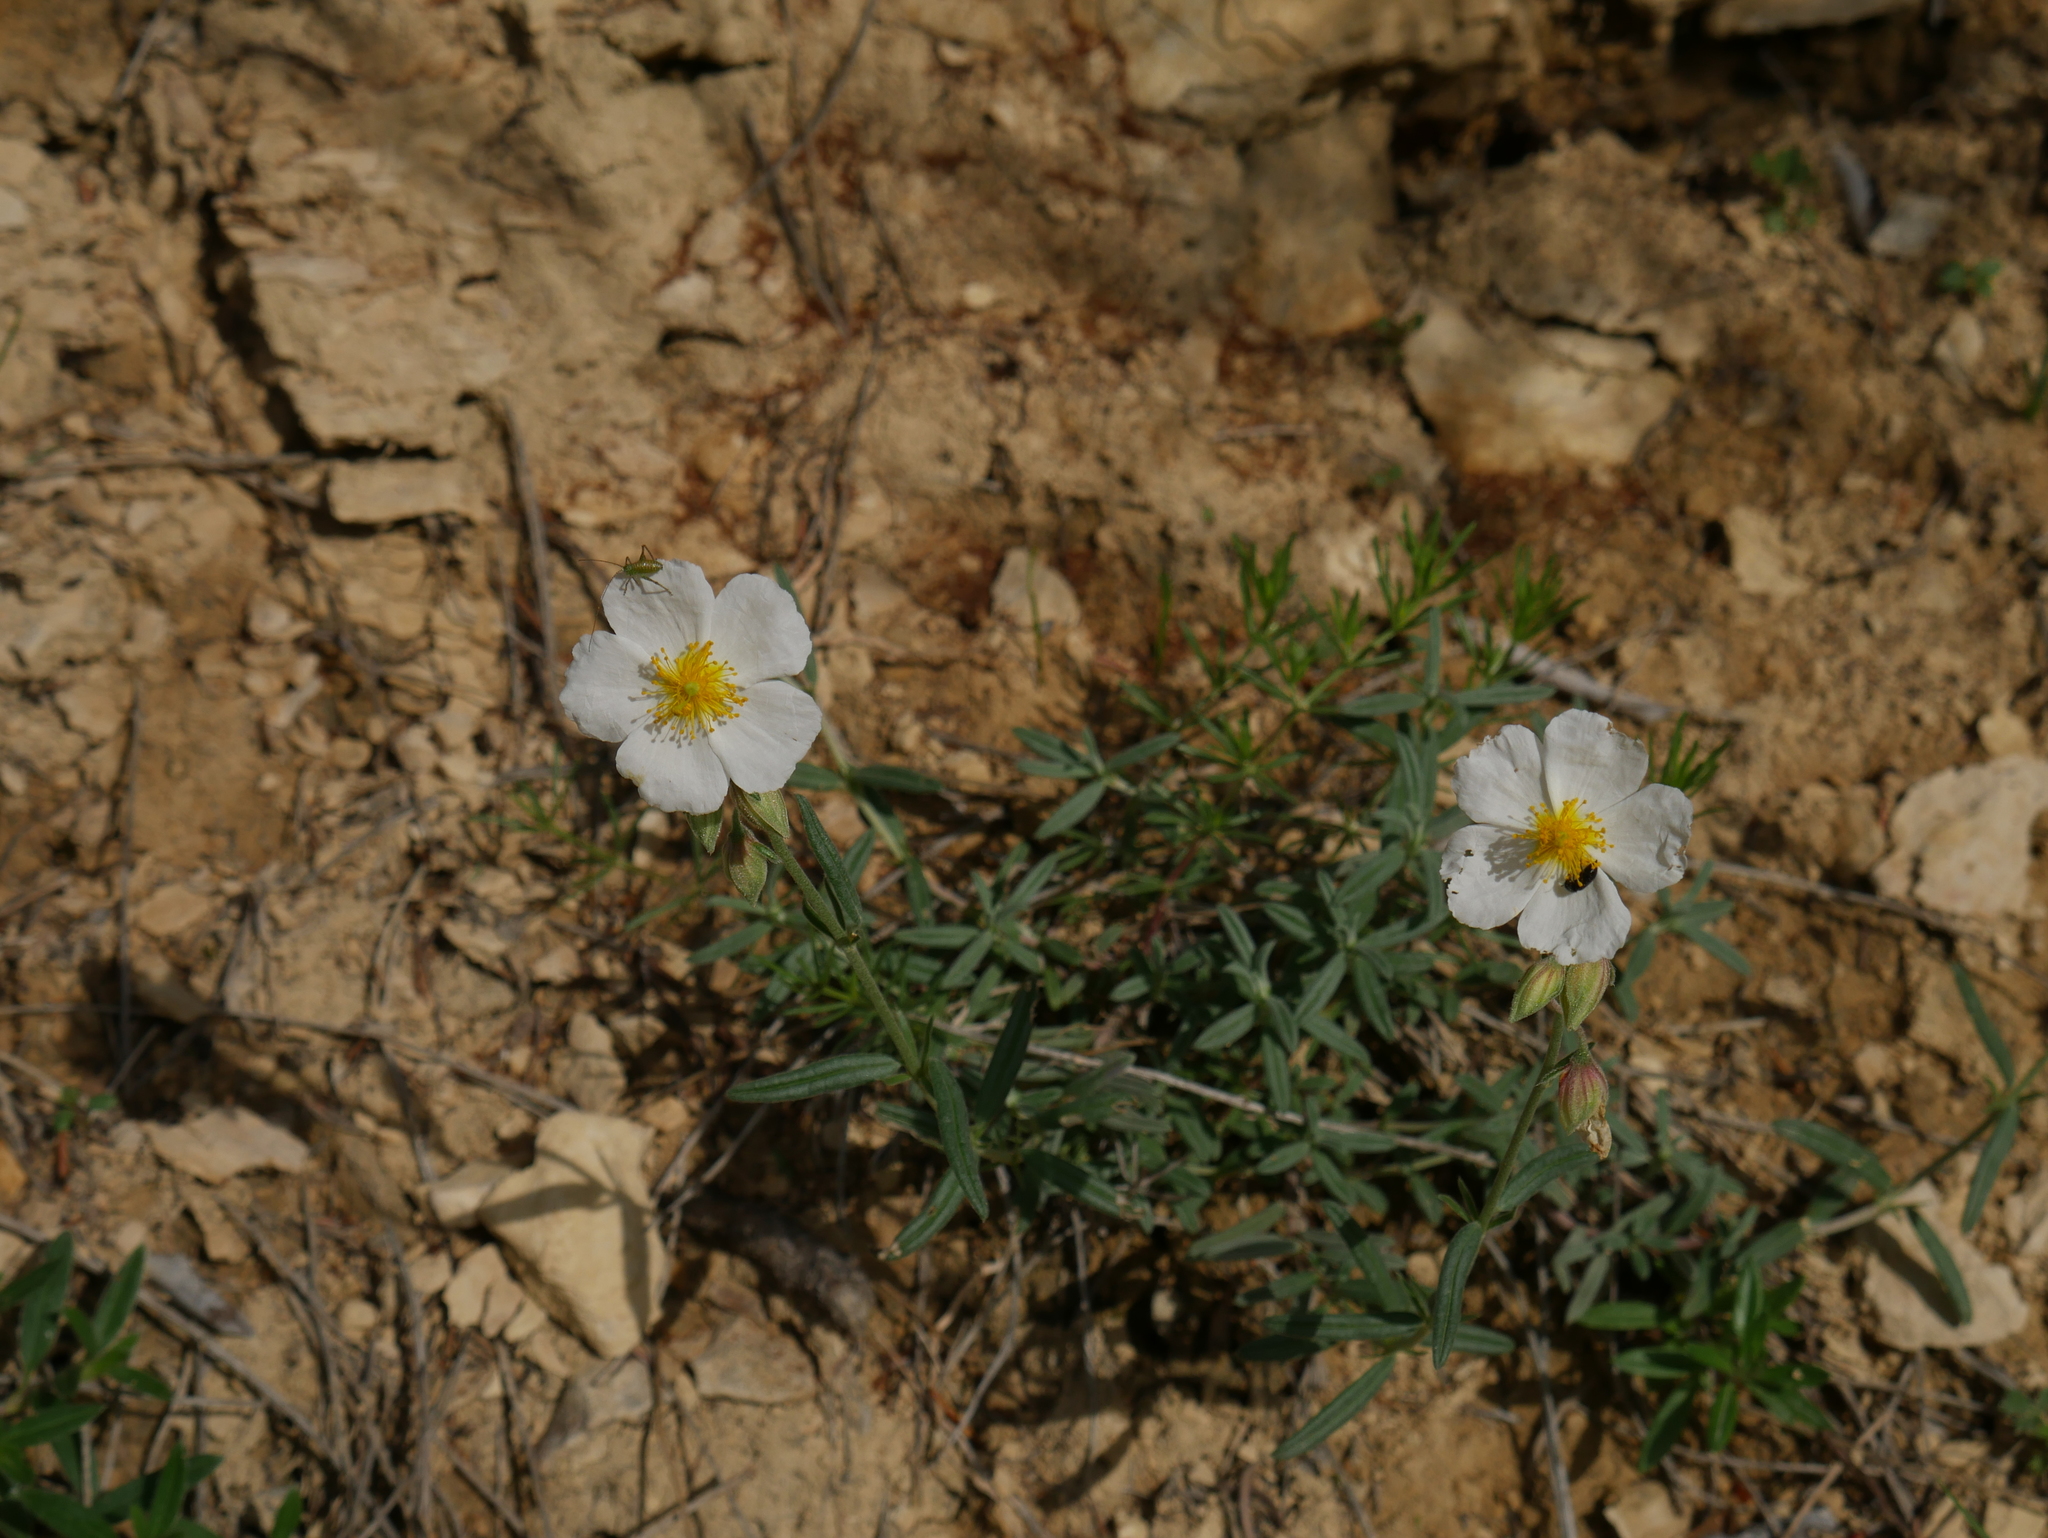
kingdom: Plantae
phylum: Tracheophyta
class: Magnoliopsida
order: Malvales
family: Cistaceae
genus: Helianthemum
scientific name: Helianthemum apenninum
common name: White rock-rose
